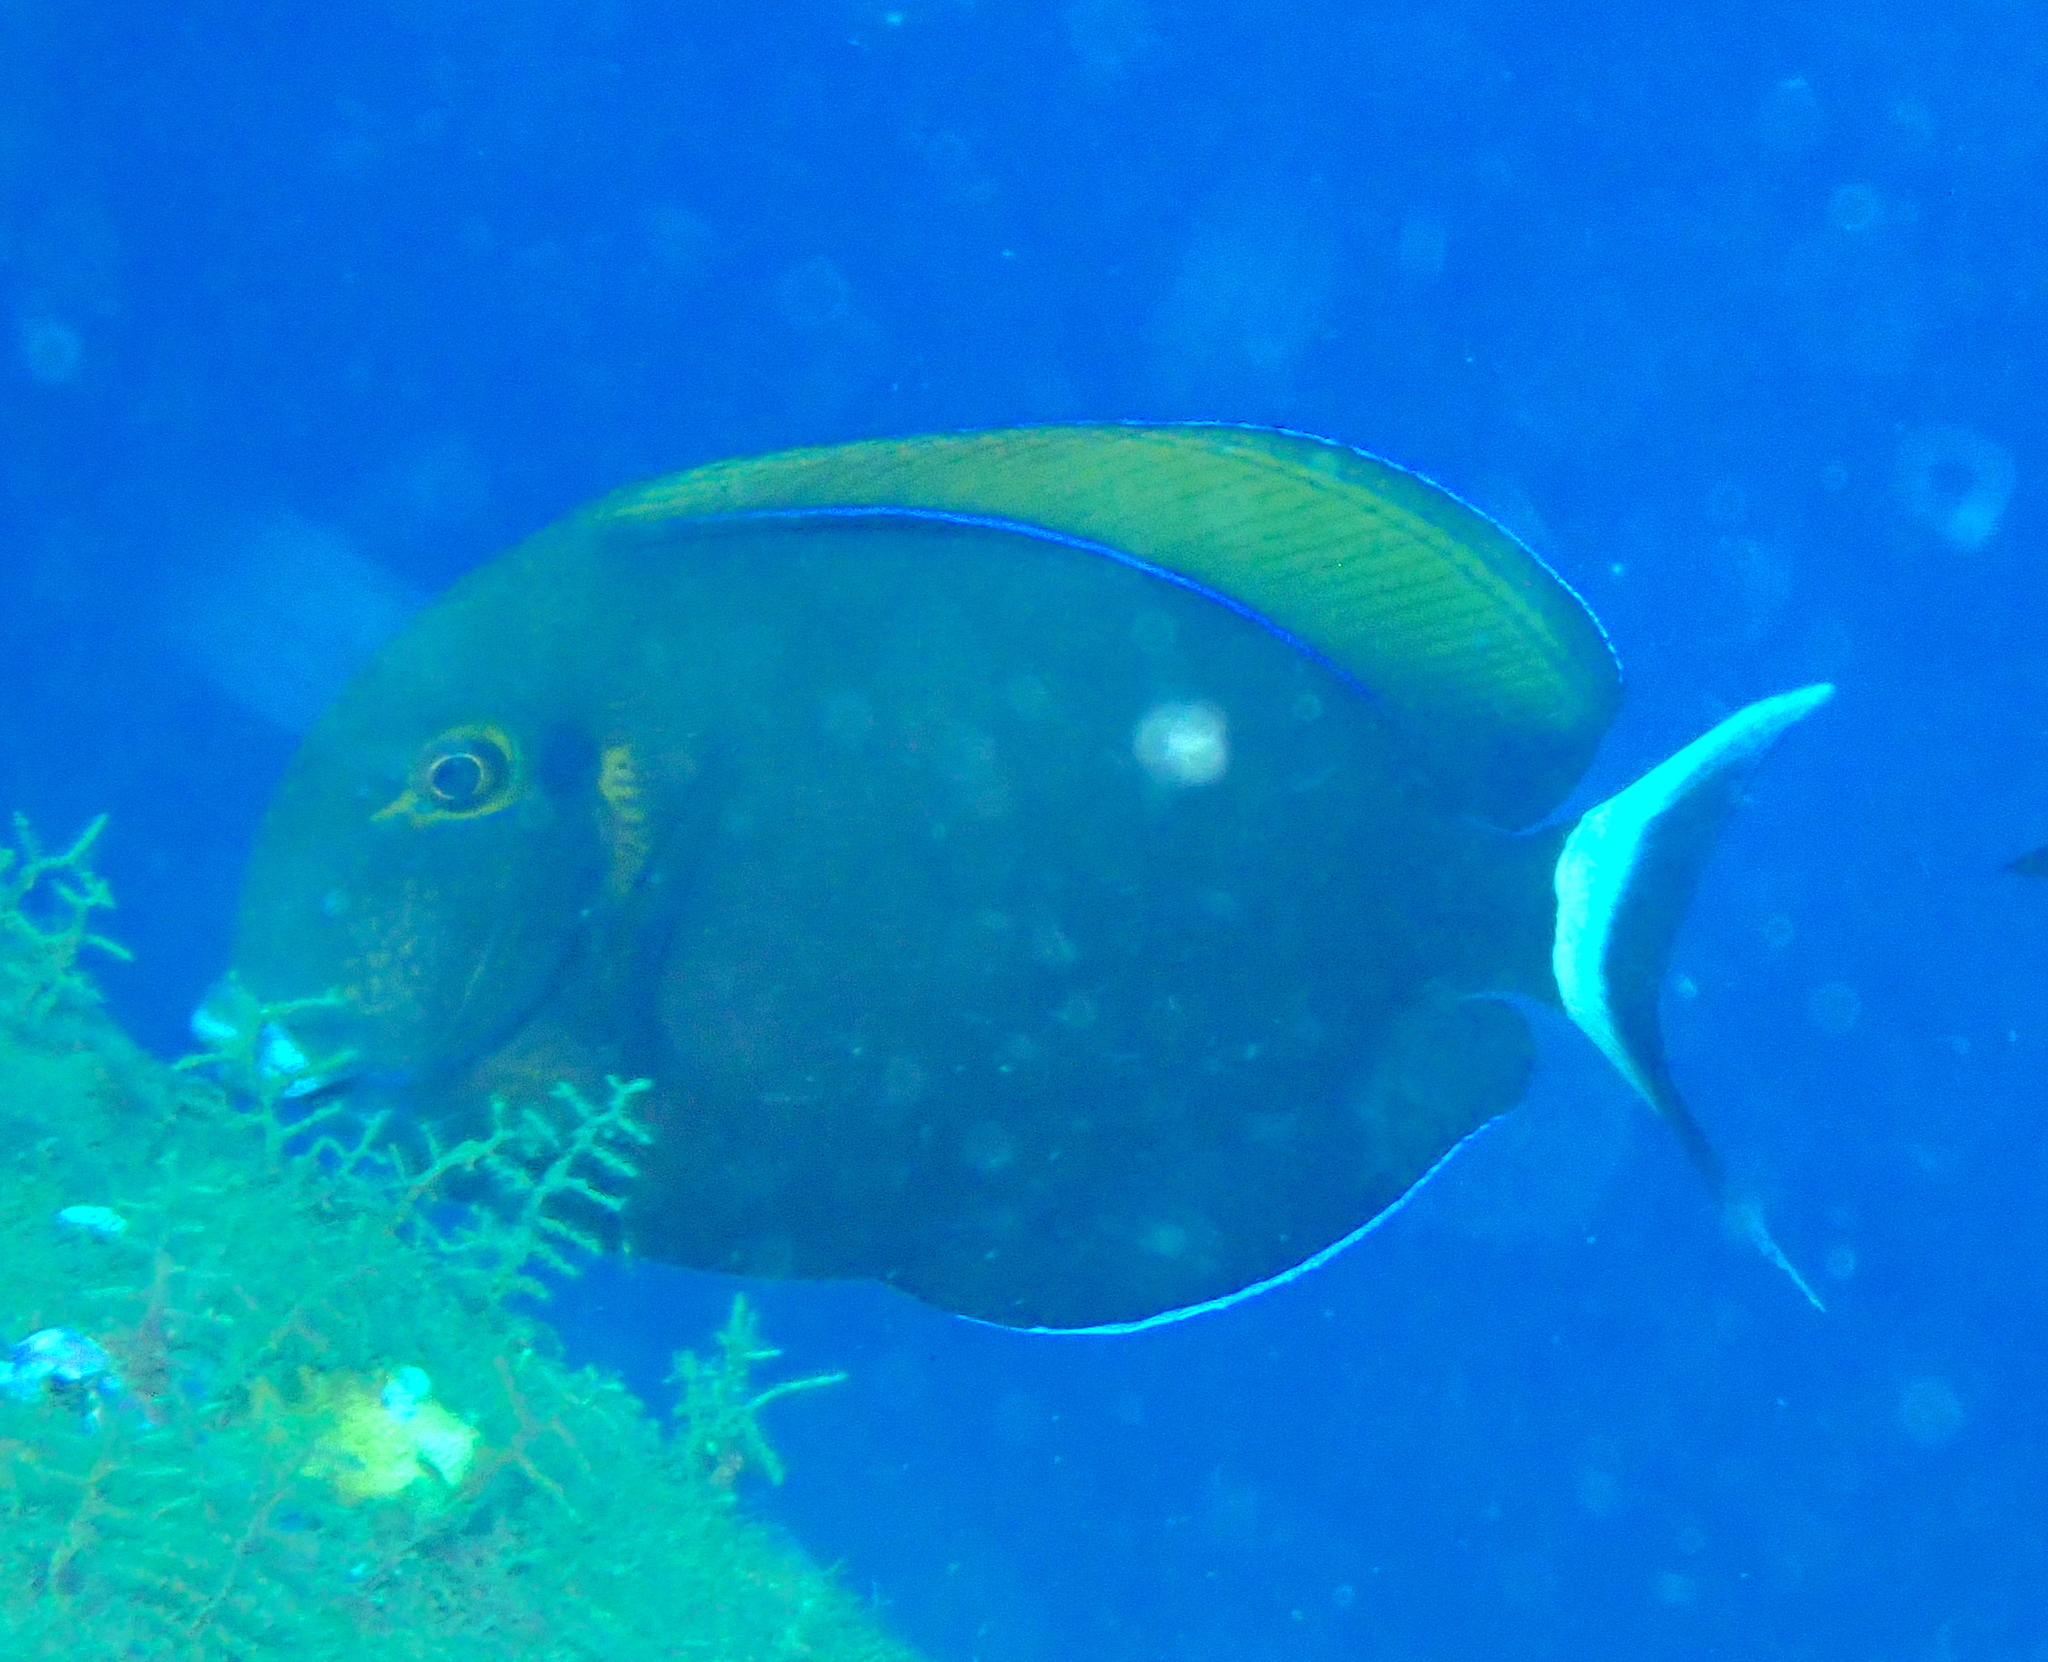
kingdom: Animalia
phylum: Chordata
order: Perciformes
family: Acanthuridae
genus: Acanthurus
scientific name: Acanthurus bariene
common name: Bariene surgeonfish
